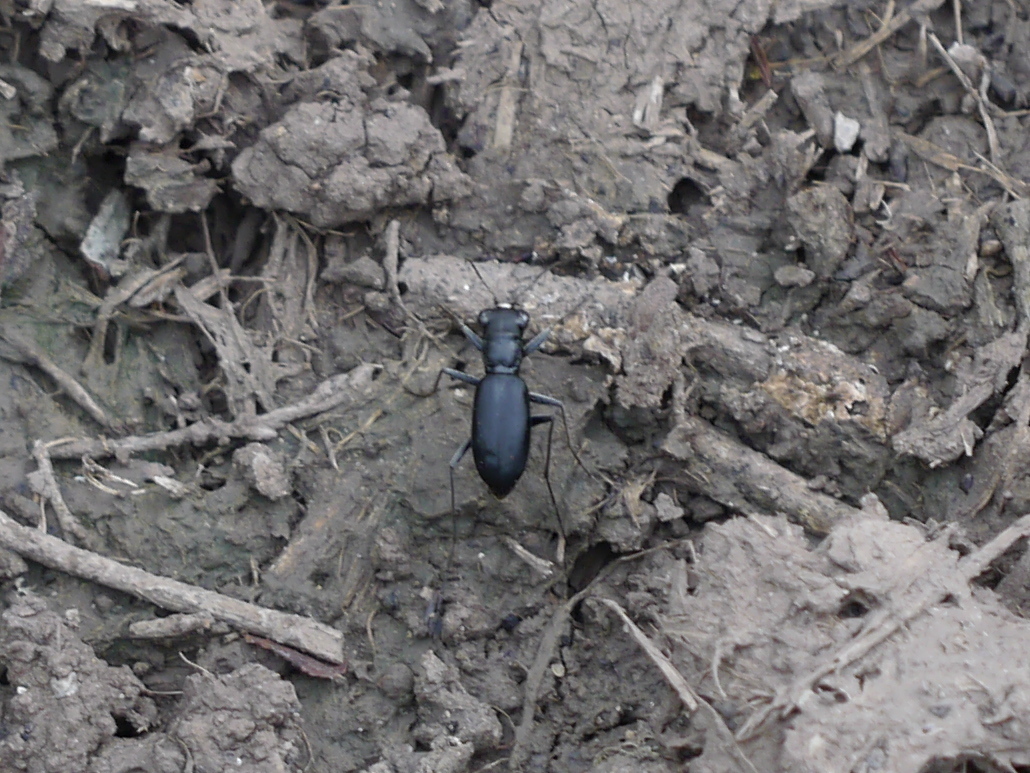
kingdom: Animalia
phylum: Arthropoda
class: Insecta
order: Coleoptera
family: Carabidae
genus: Dromochorus
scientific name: Dromochorus belfragei
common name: Loamy-ground dromo tiger beetle
